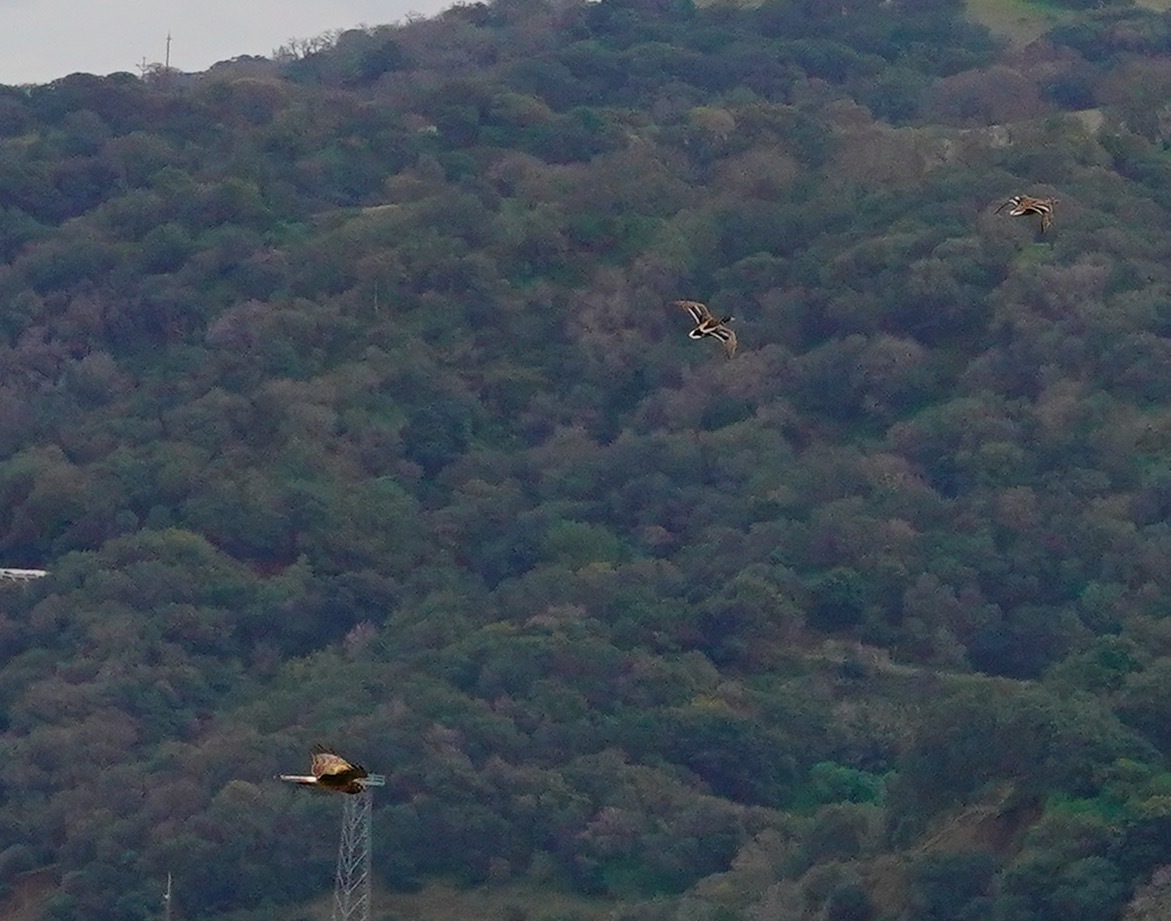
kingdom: Animalia
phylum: Chordata
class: Aves
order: Accipitriformes
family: Accipitridae
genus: Circus
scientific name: Circus cyaneus
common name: Hen harrier
